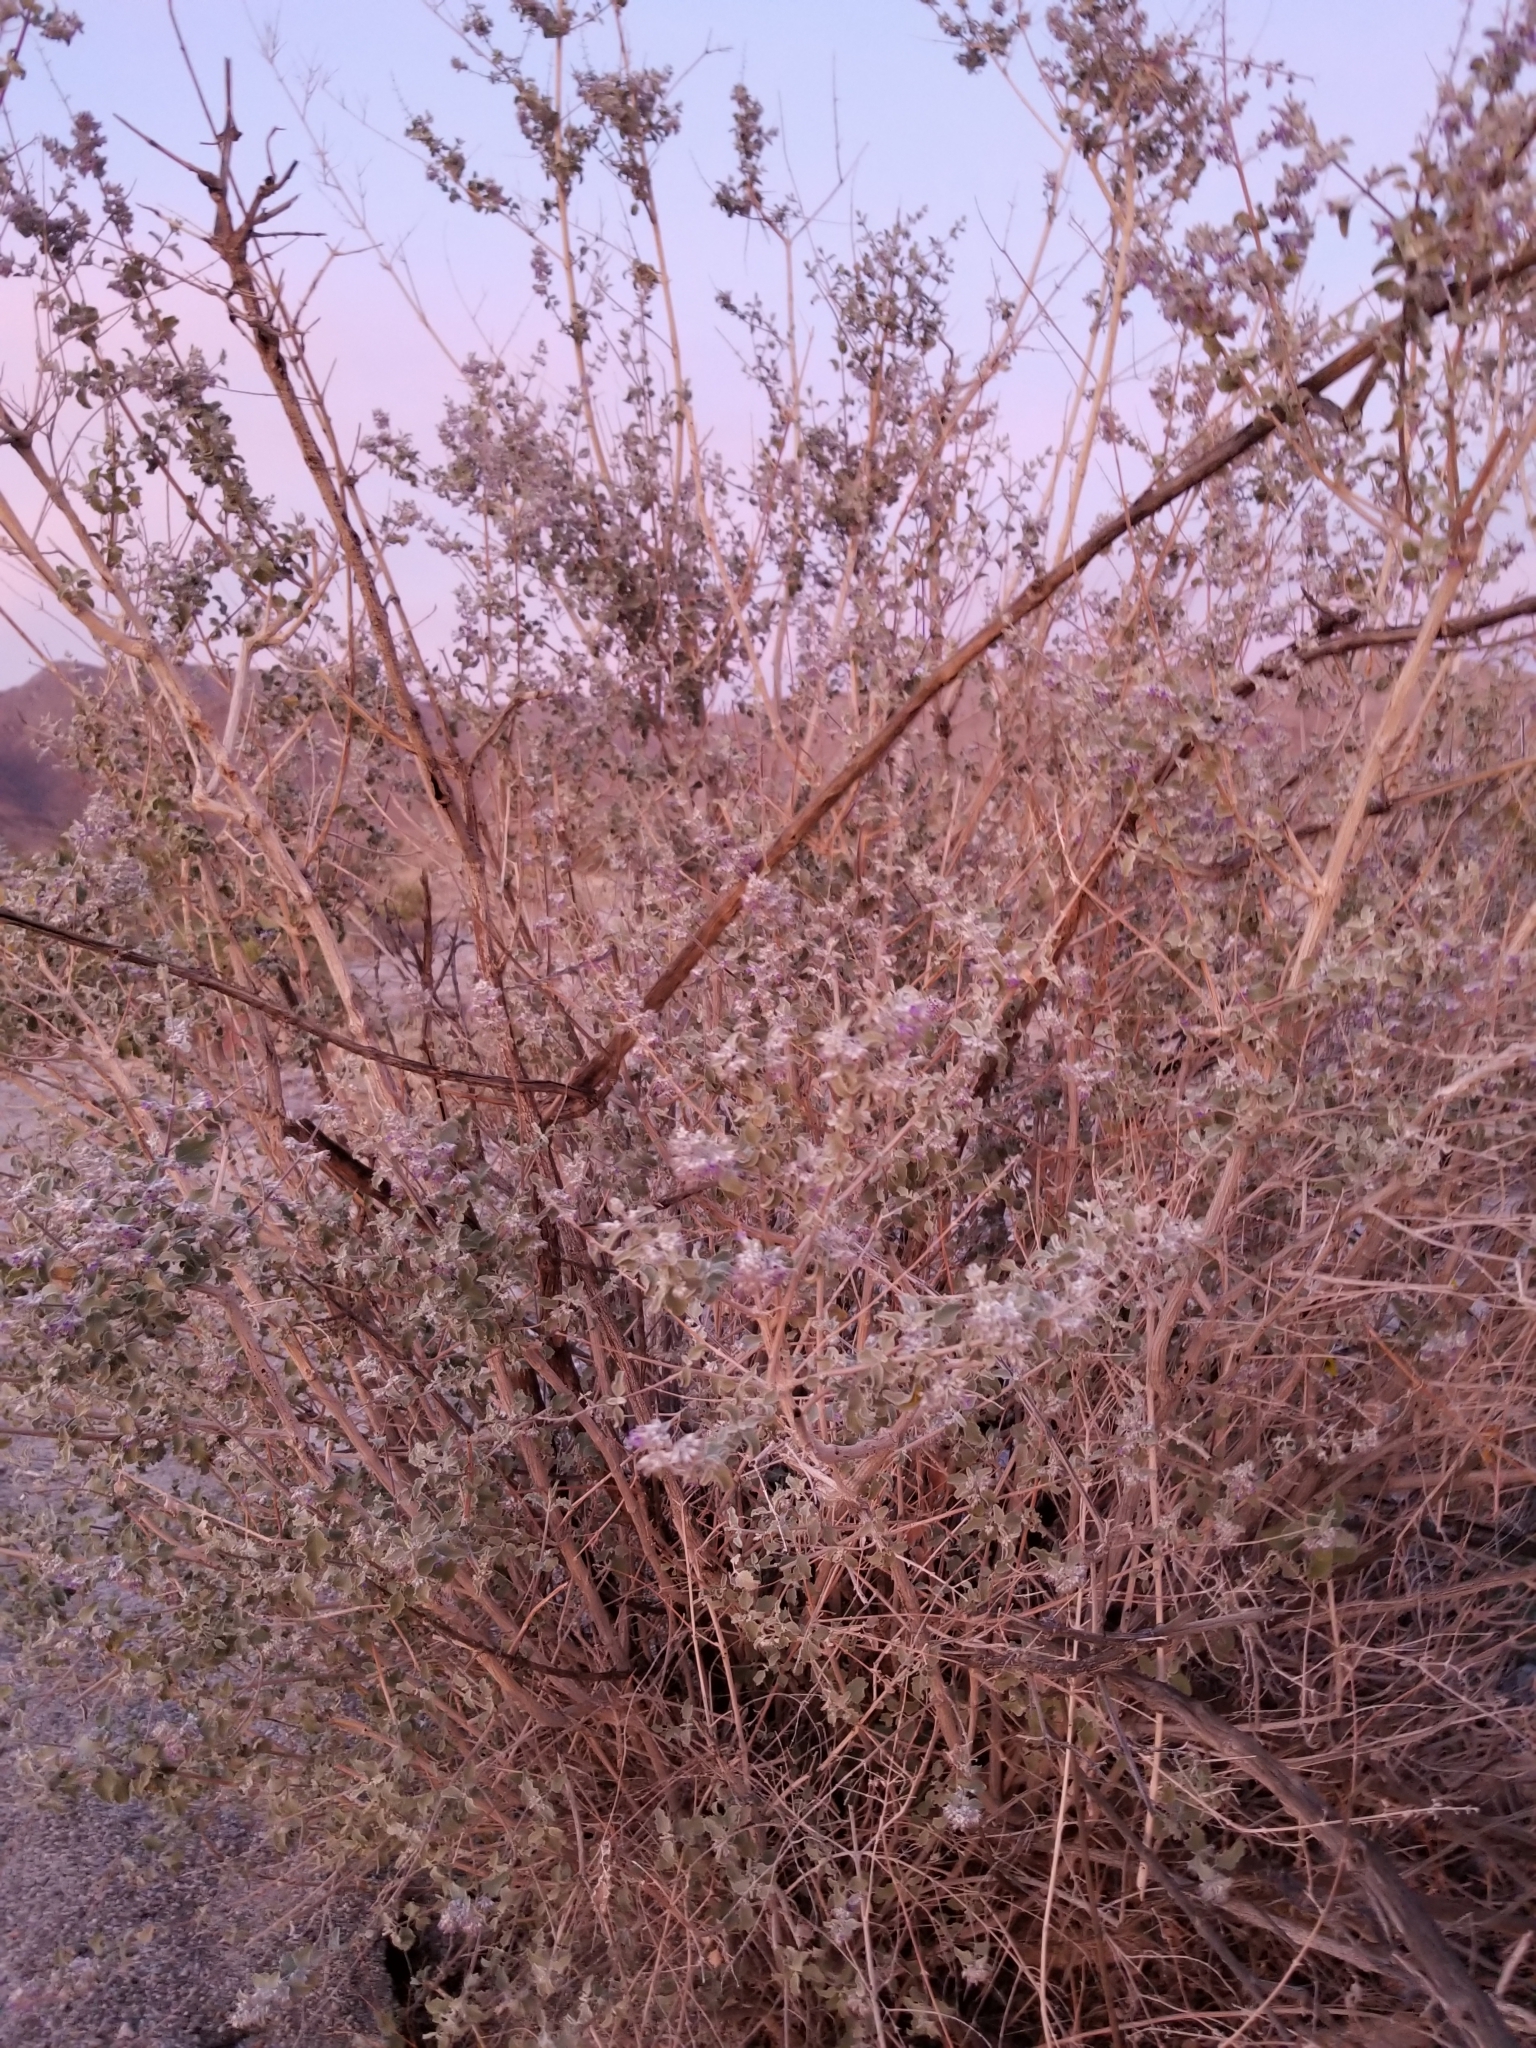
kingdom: Plantae
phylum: Tracheophyta
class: Magnoliopsida
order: Lamiales
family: Lamiaceae
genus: Condea
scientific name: Condea emoryi
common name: Chia
